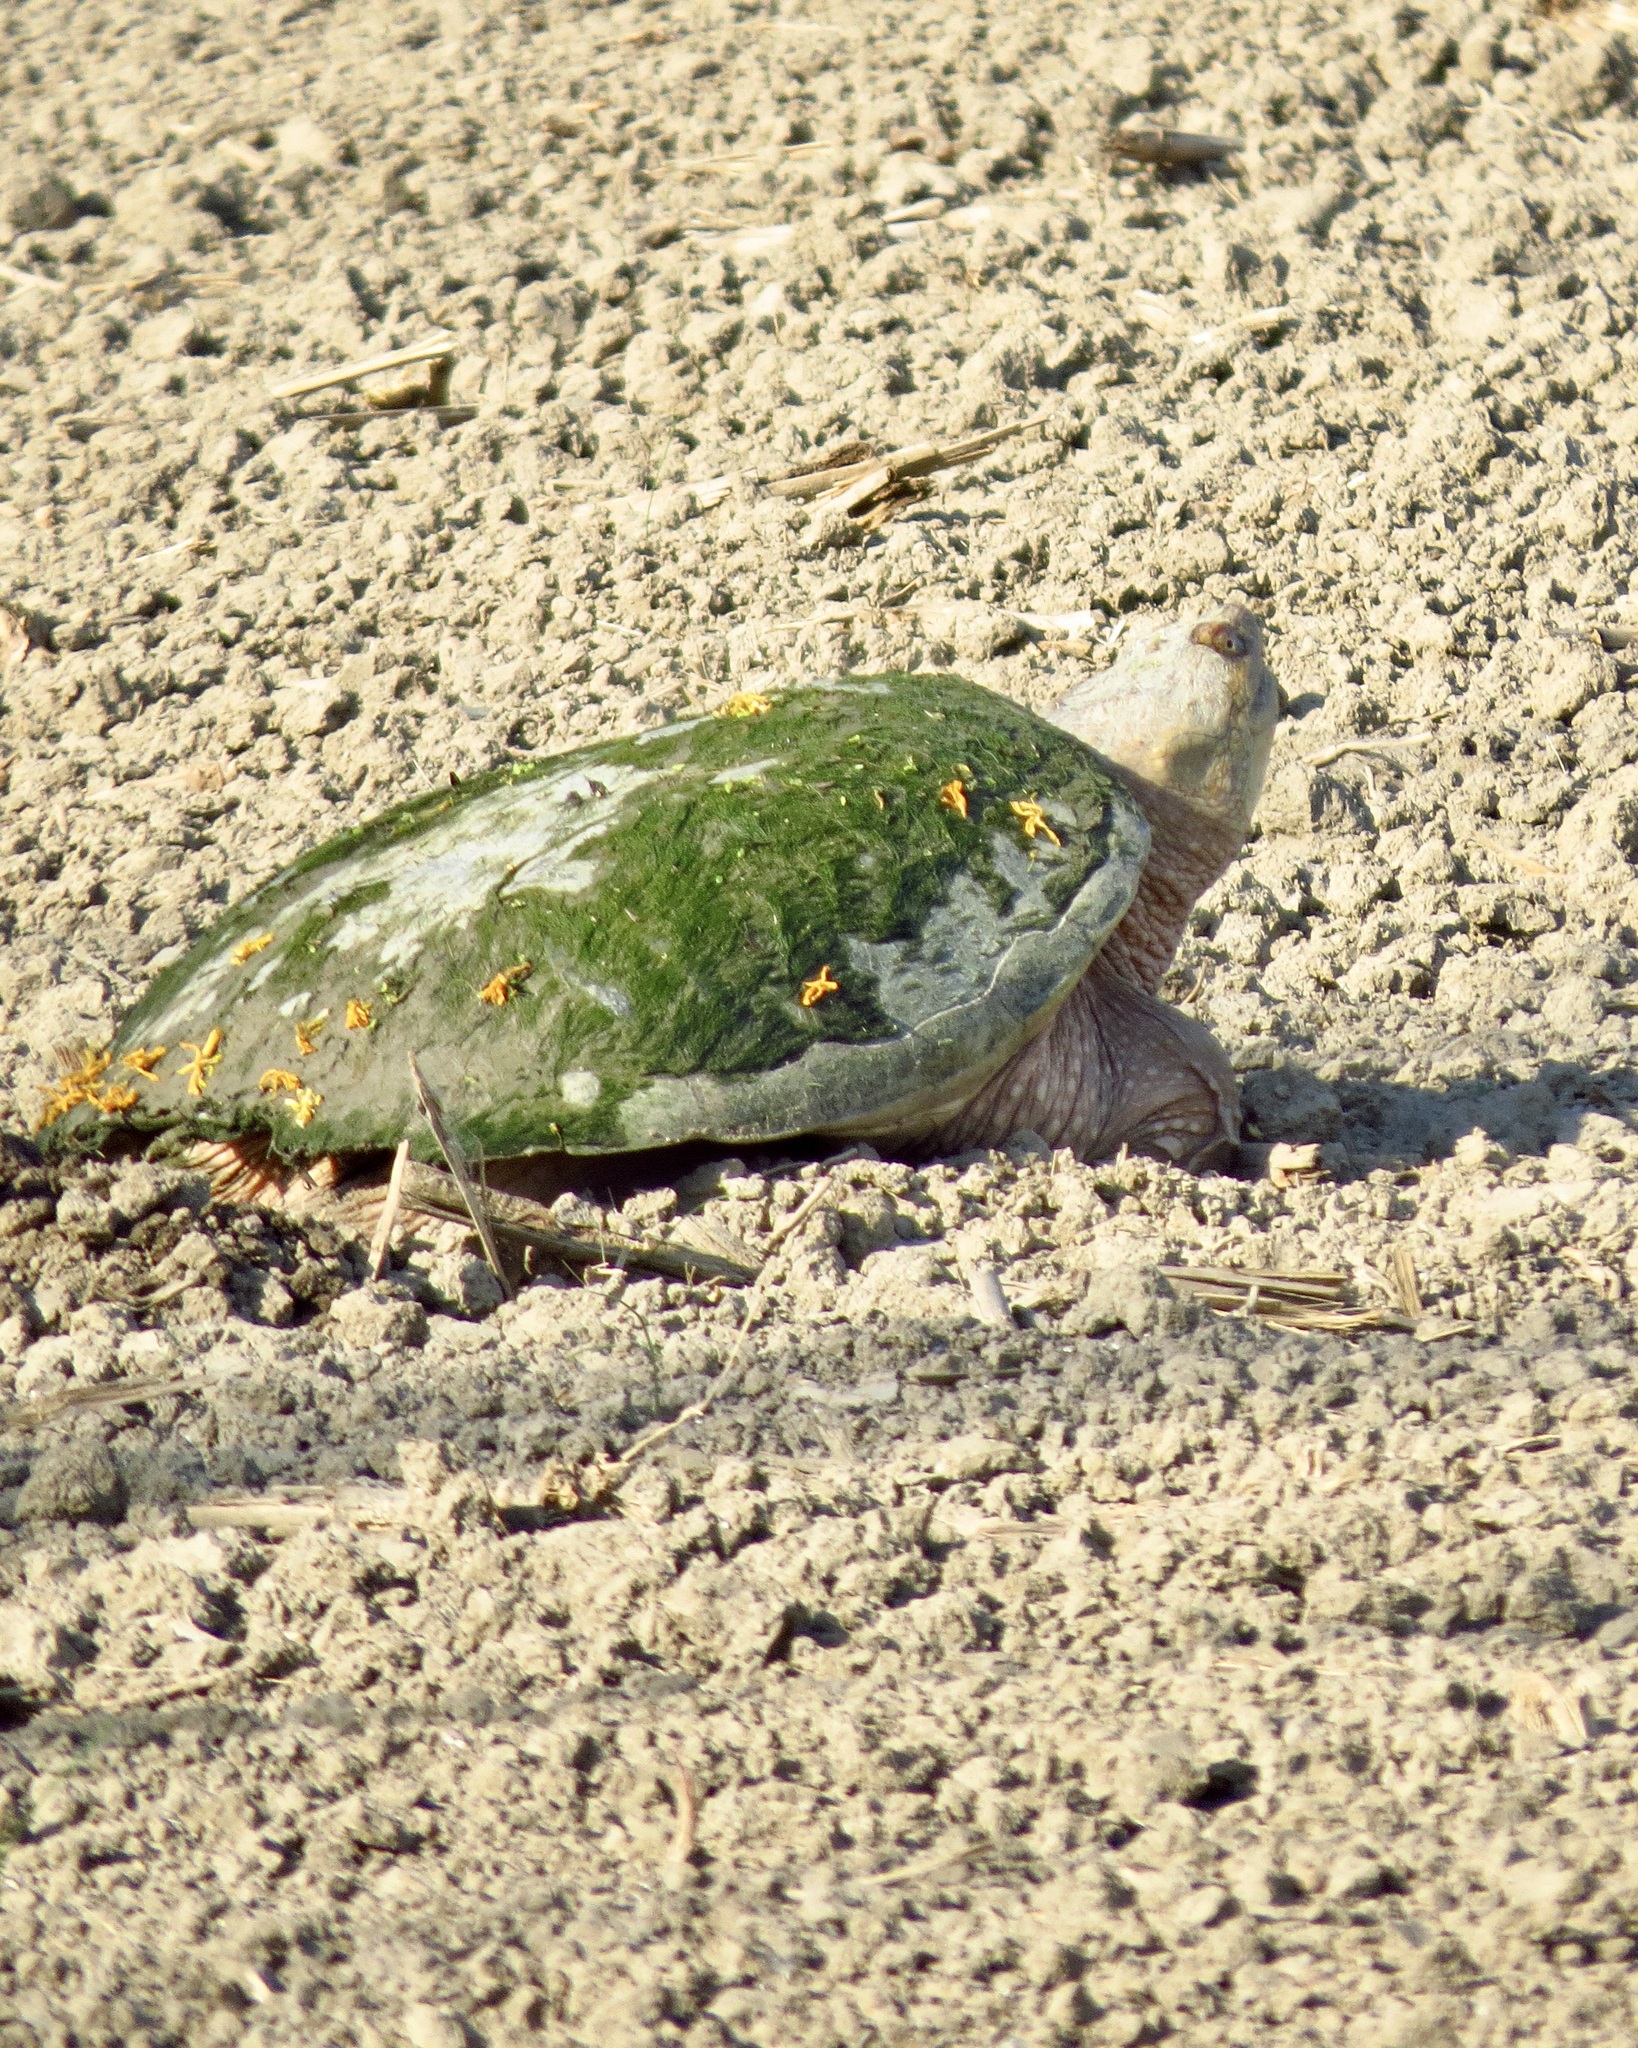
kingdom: Animalia
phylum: Chordata
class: Testudines
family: Chelydridae
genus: Chelydra
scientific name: Chelydra serpentina
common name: Common snapping turtle
